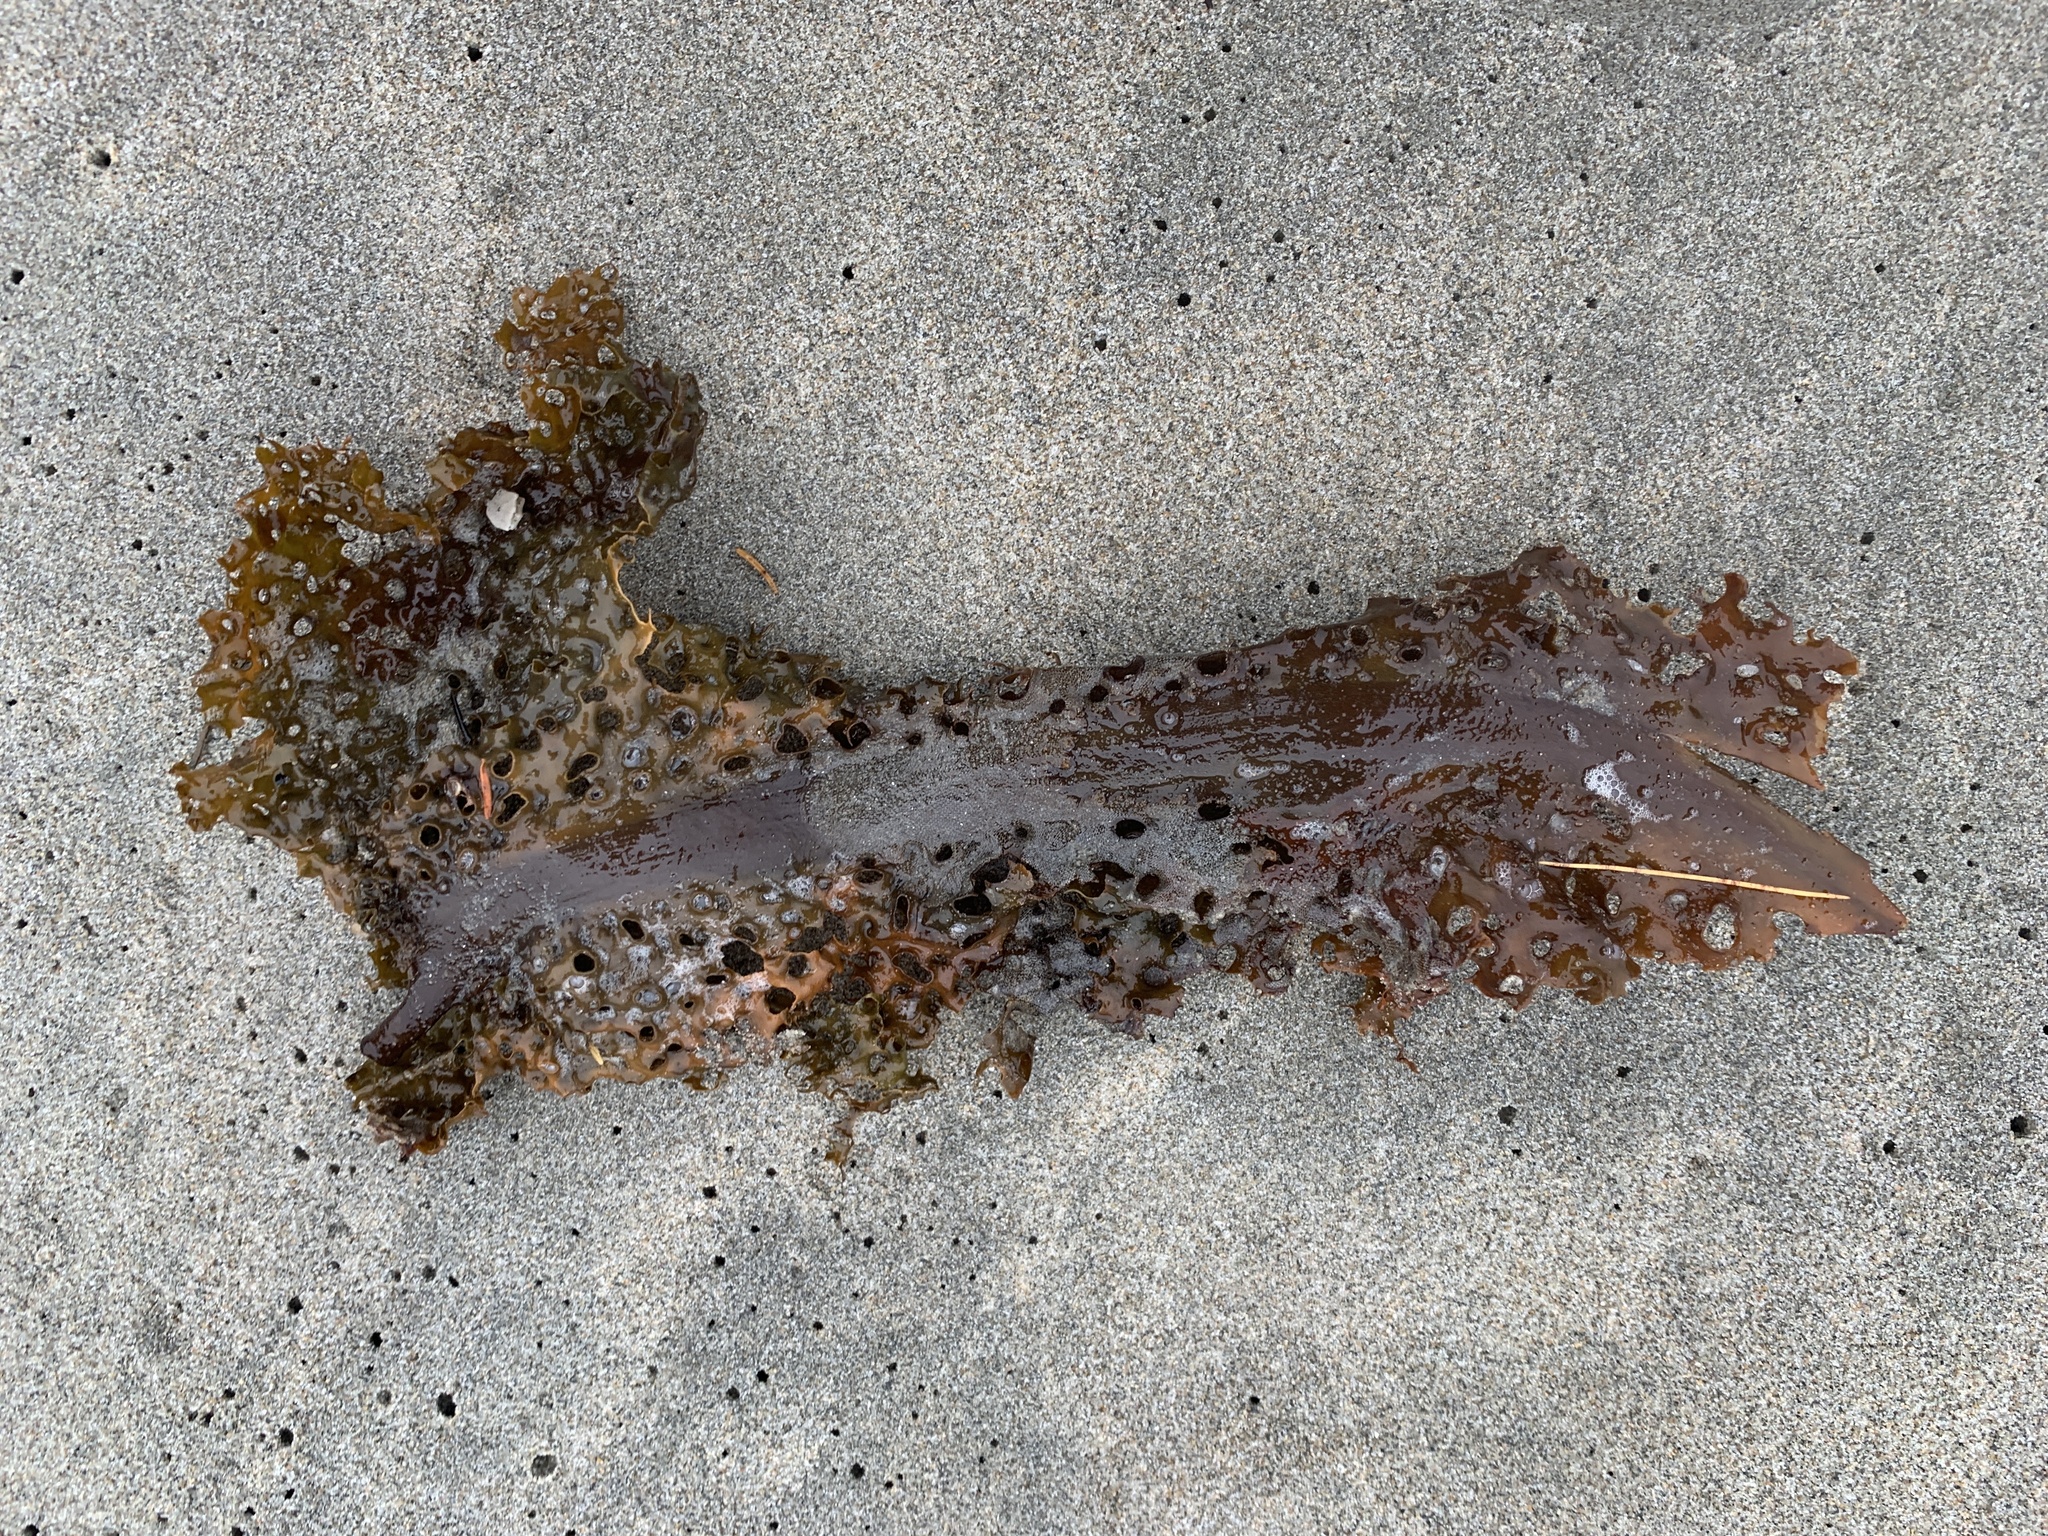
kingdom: Chromista
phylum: Ochrophyta
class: Phaeophyceae
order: Laminariales
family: Costariaceae
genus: Agarum
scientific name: Agarum clathratum
